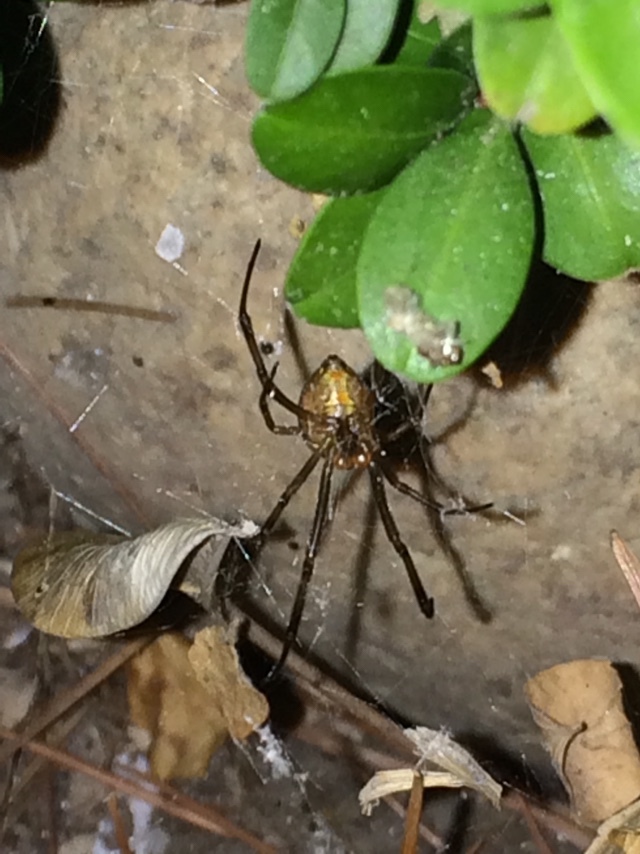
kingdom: Animalia
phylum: Arthropoda
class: Arachnida
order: Araneae
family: Theridiidae
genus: Latrodectus
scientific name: Latrodectus hesperus
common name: Western black widow
